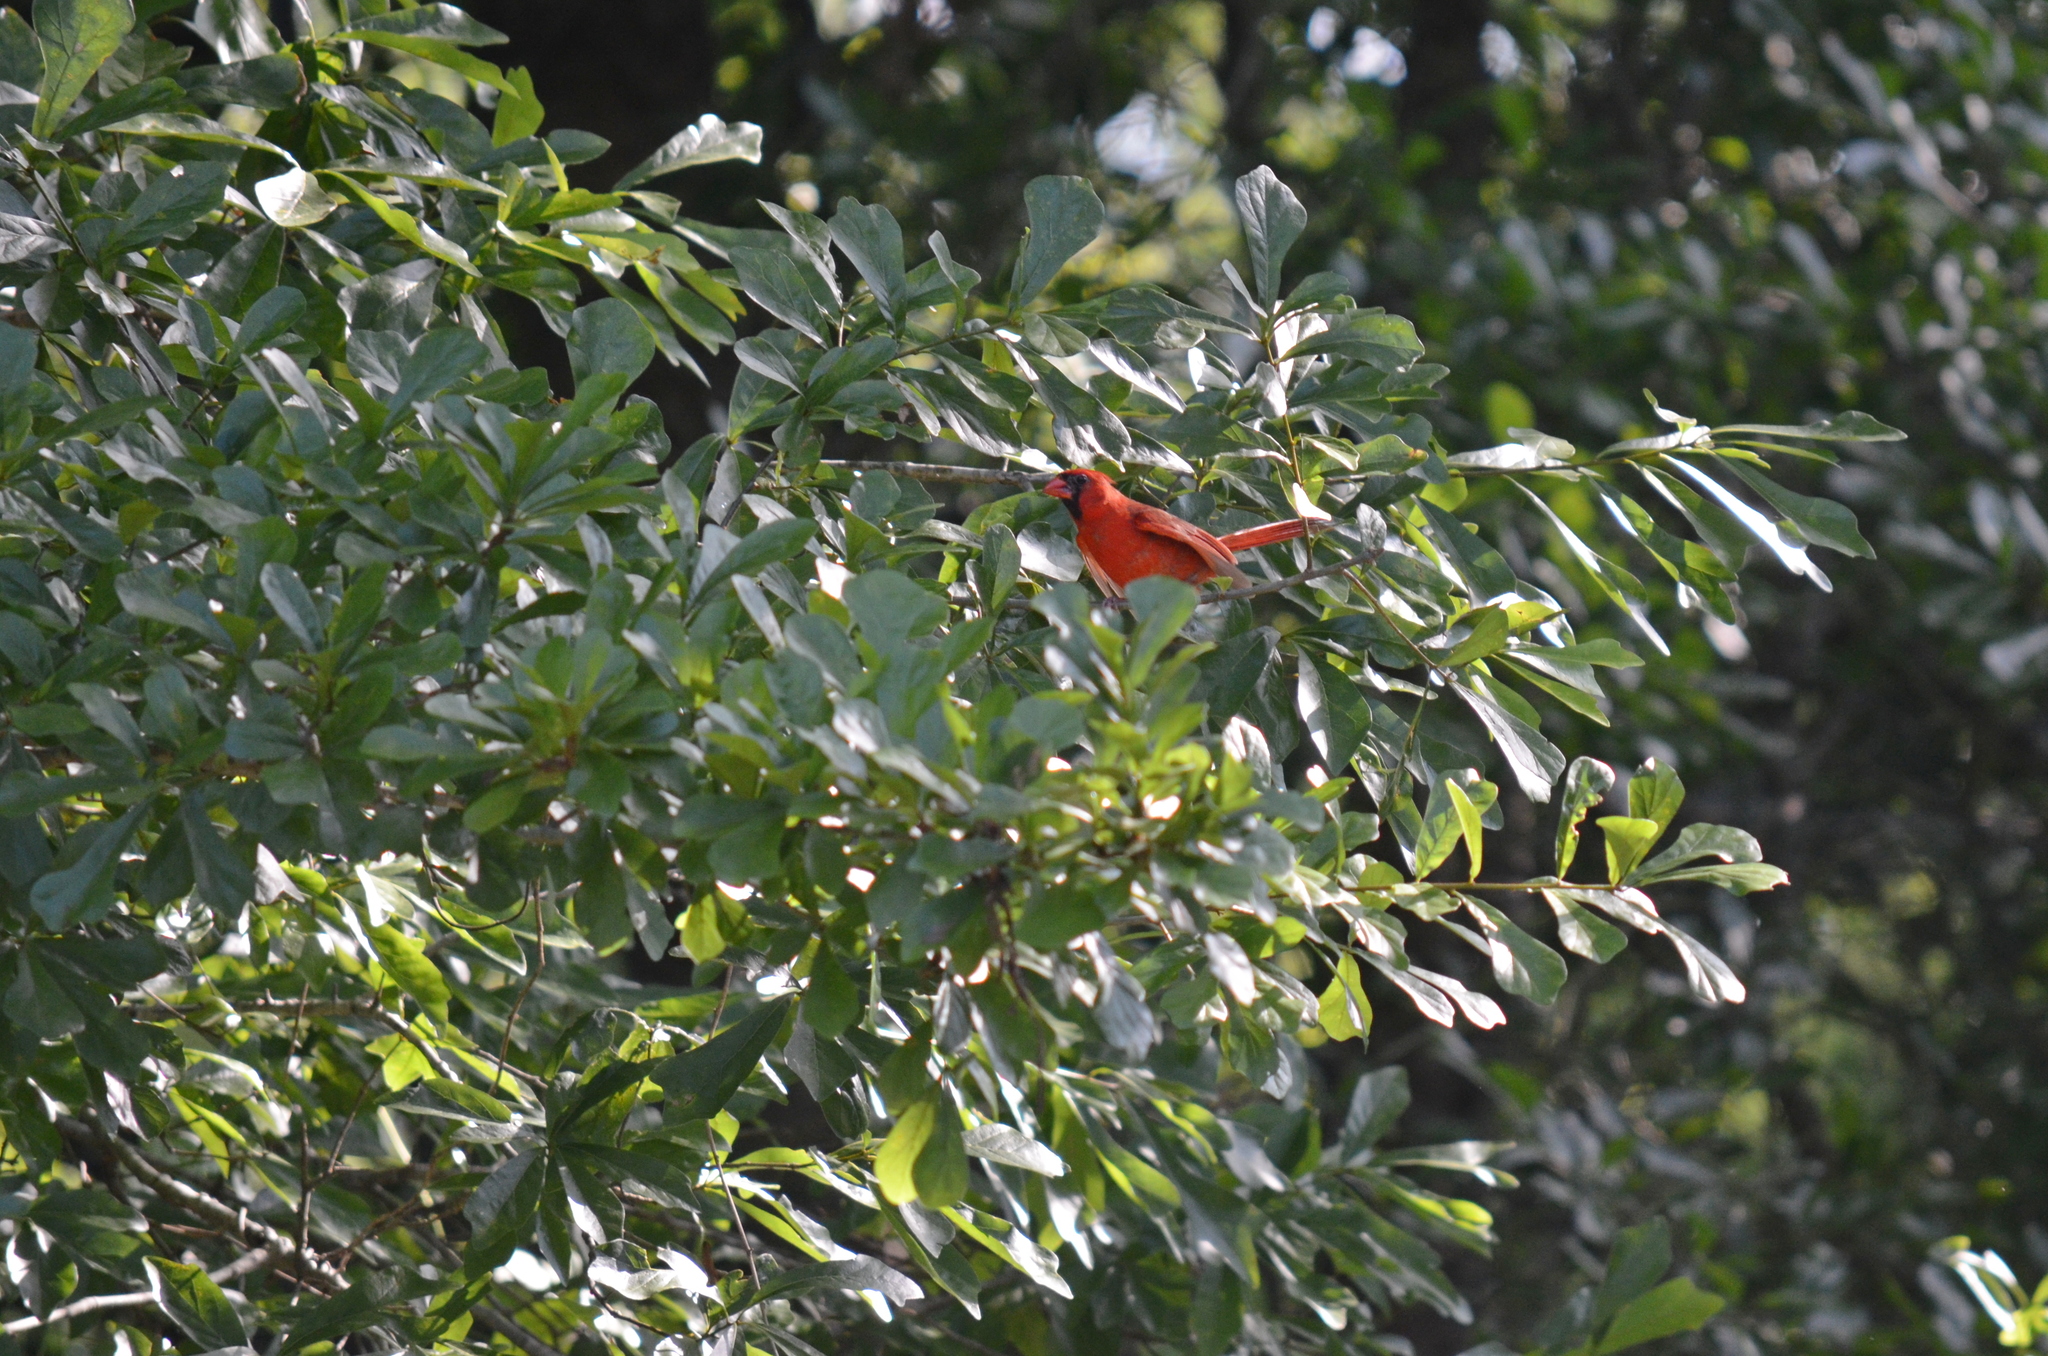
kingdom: Animalia
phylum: Chordata
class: Aves
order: Passeriformes
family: Cardinalidae
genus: Cardinalis
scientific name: Cardinalis cardinalis
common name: Northern cardinal
